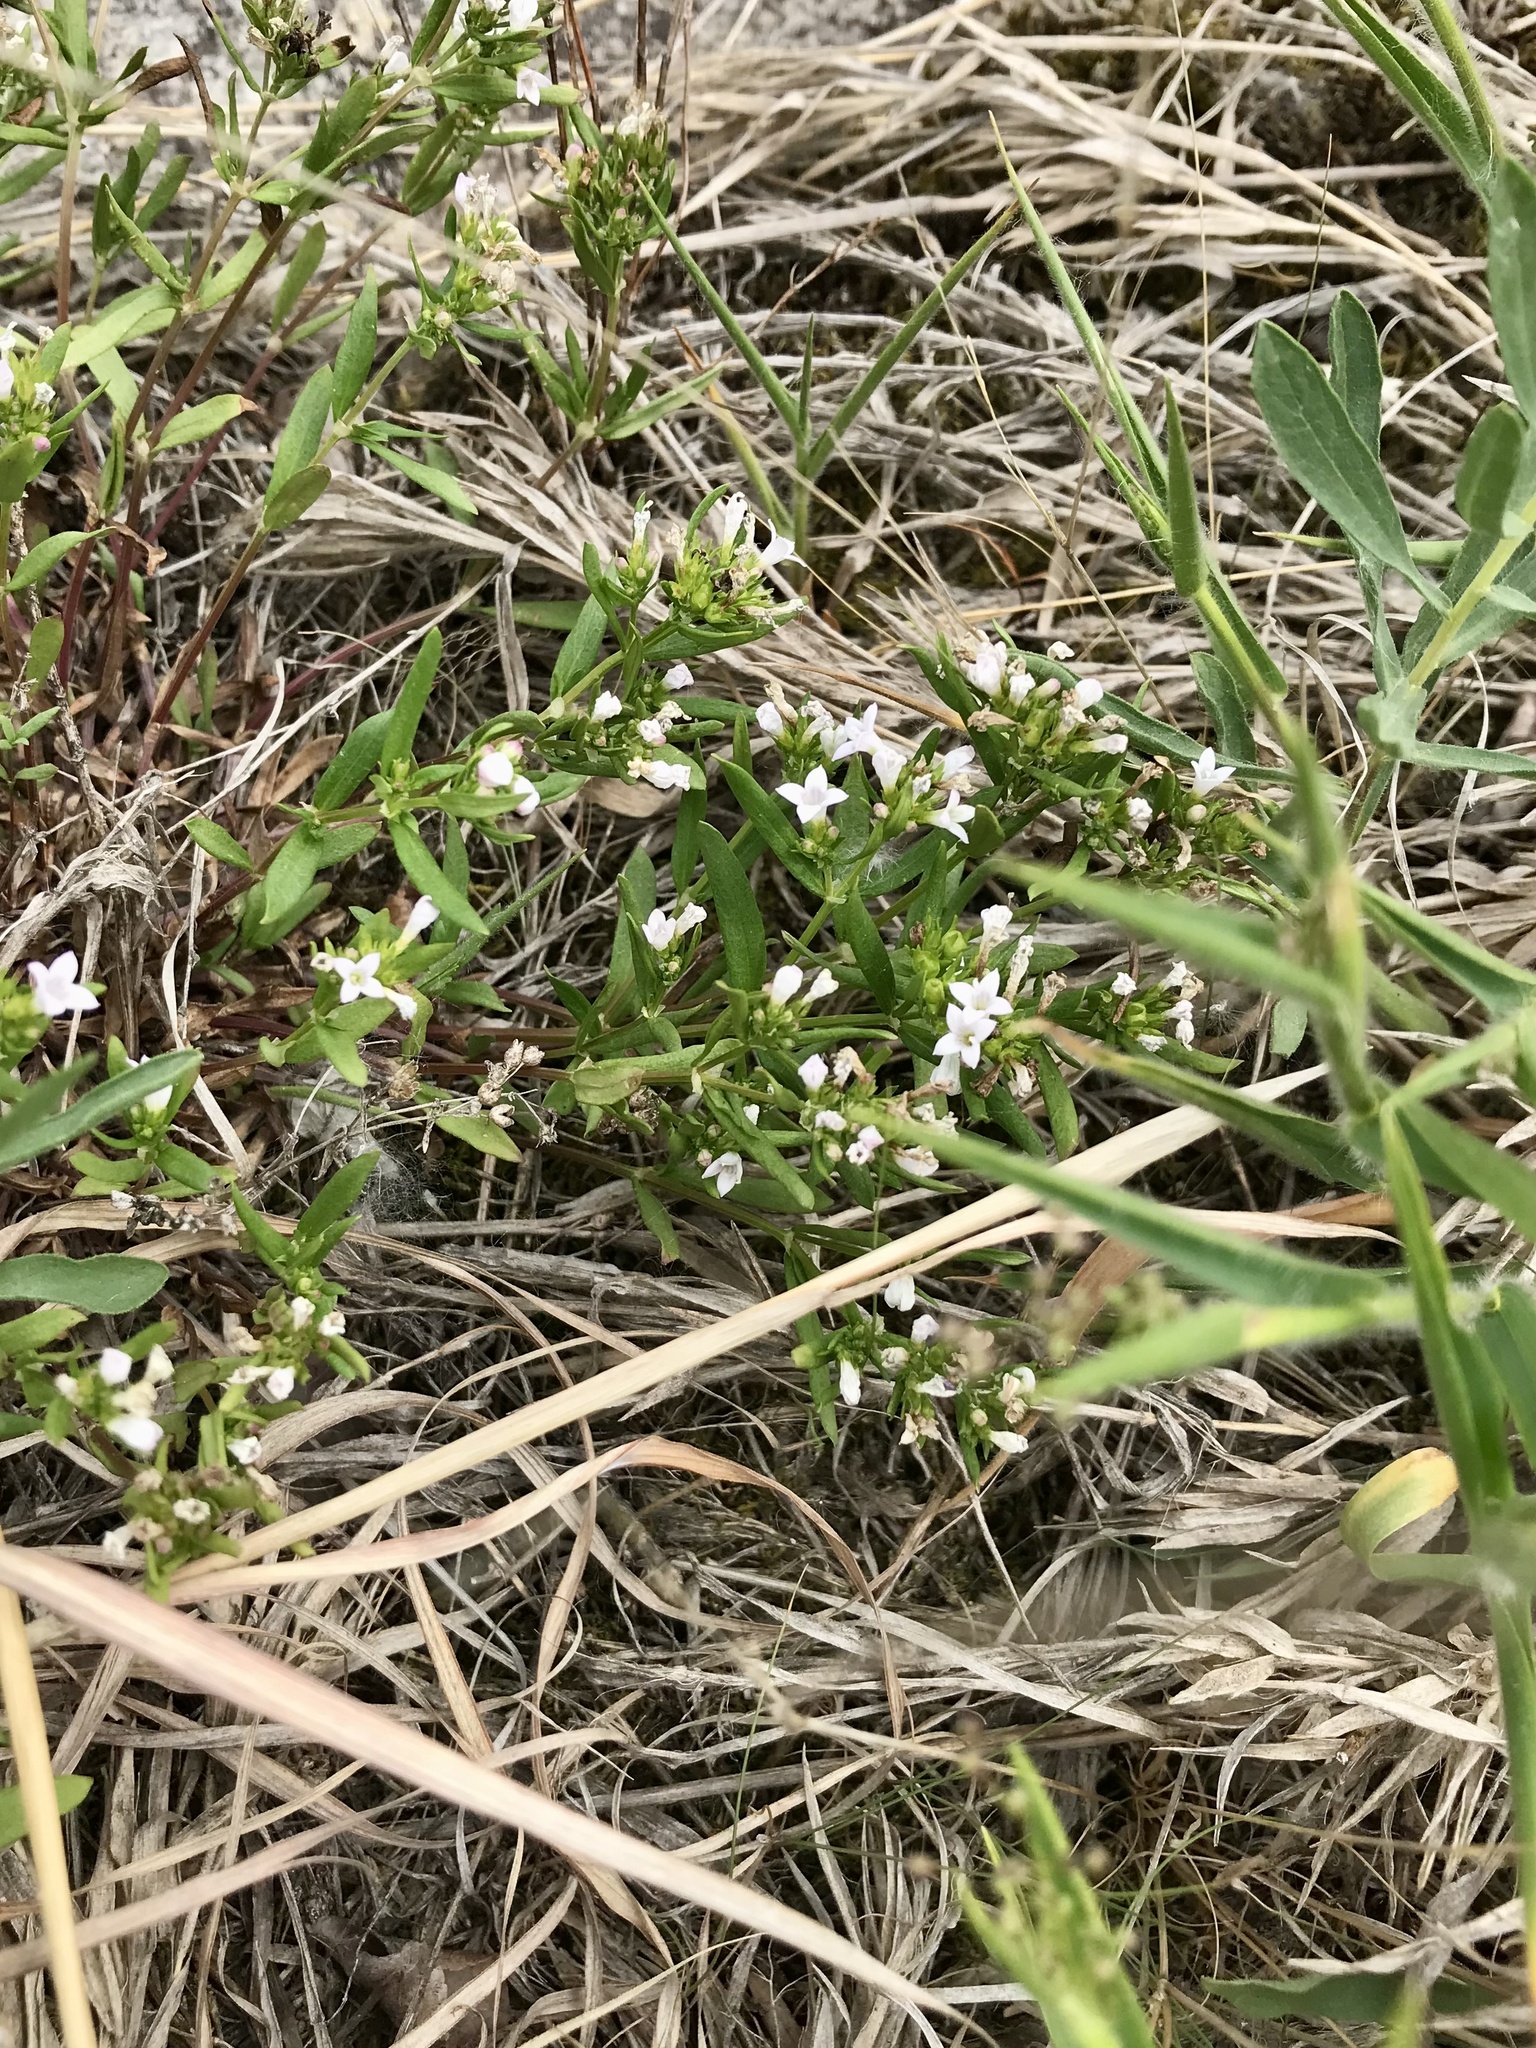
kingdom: Plantae
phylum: Tracheophyta
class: Magnoliopsida
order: Gentianales
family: Rubiaceae
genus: Houstonia
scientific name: Houstonia longifolia
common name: Long-leaved bluets
